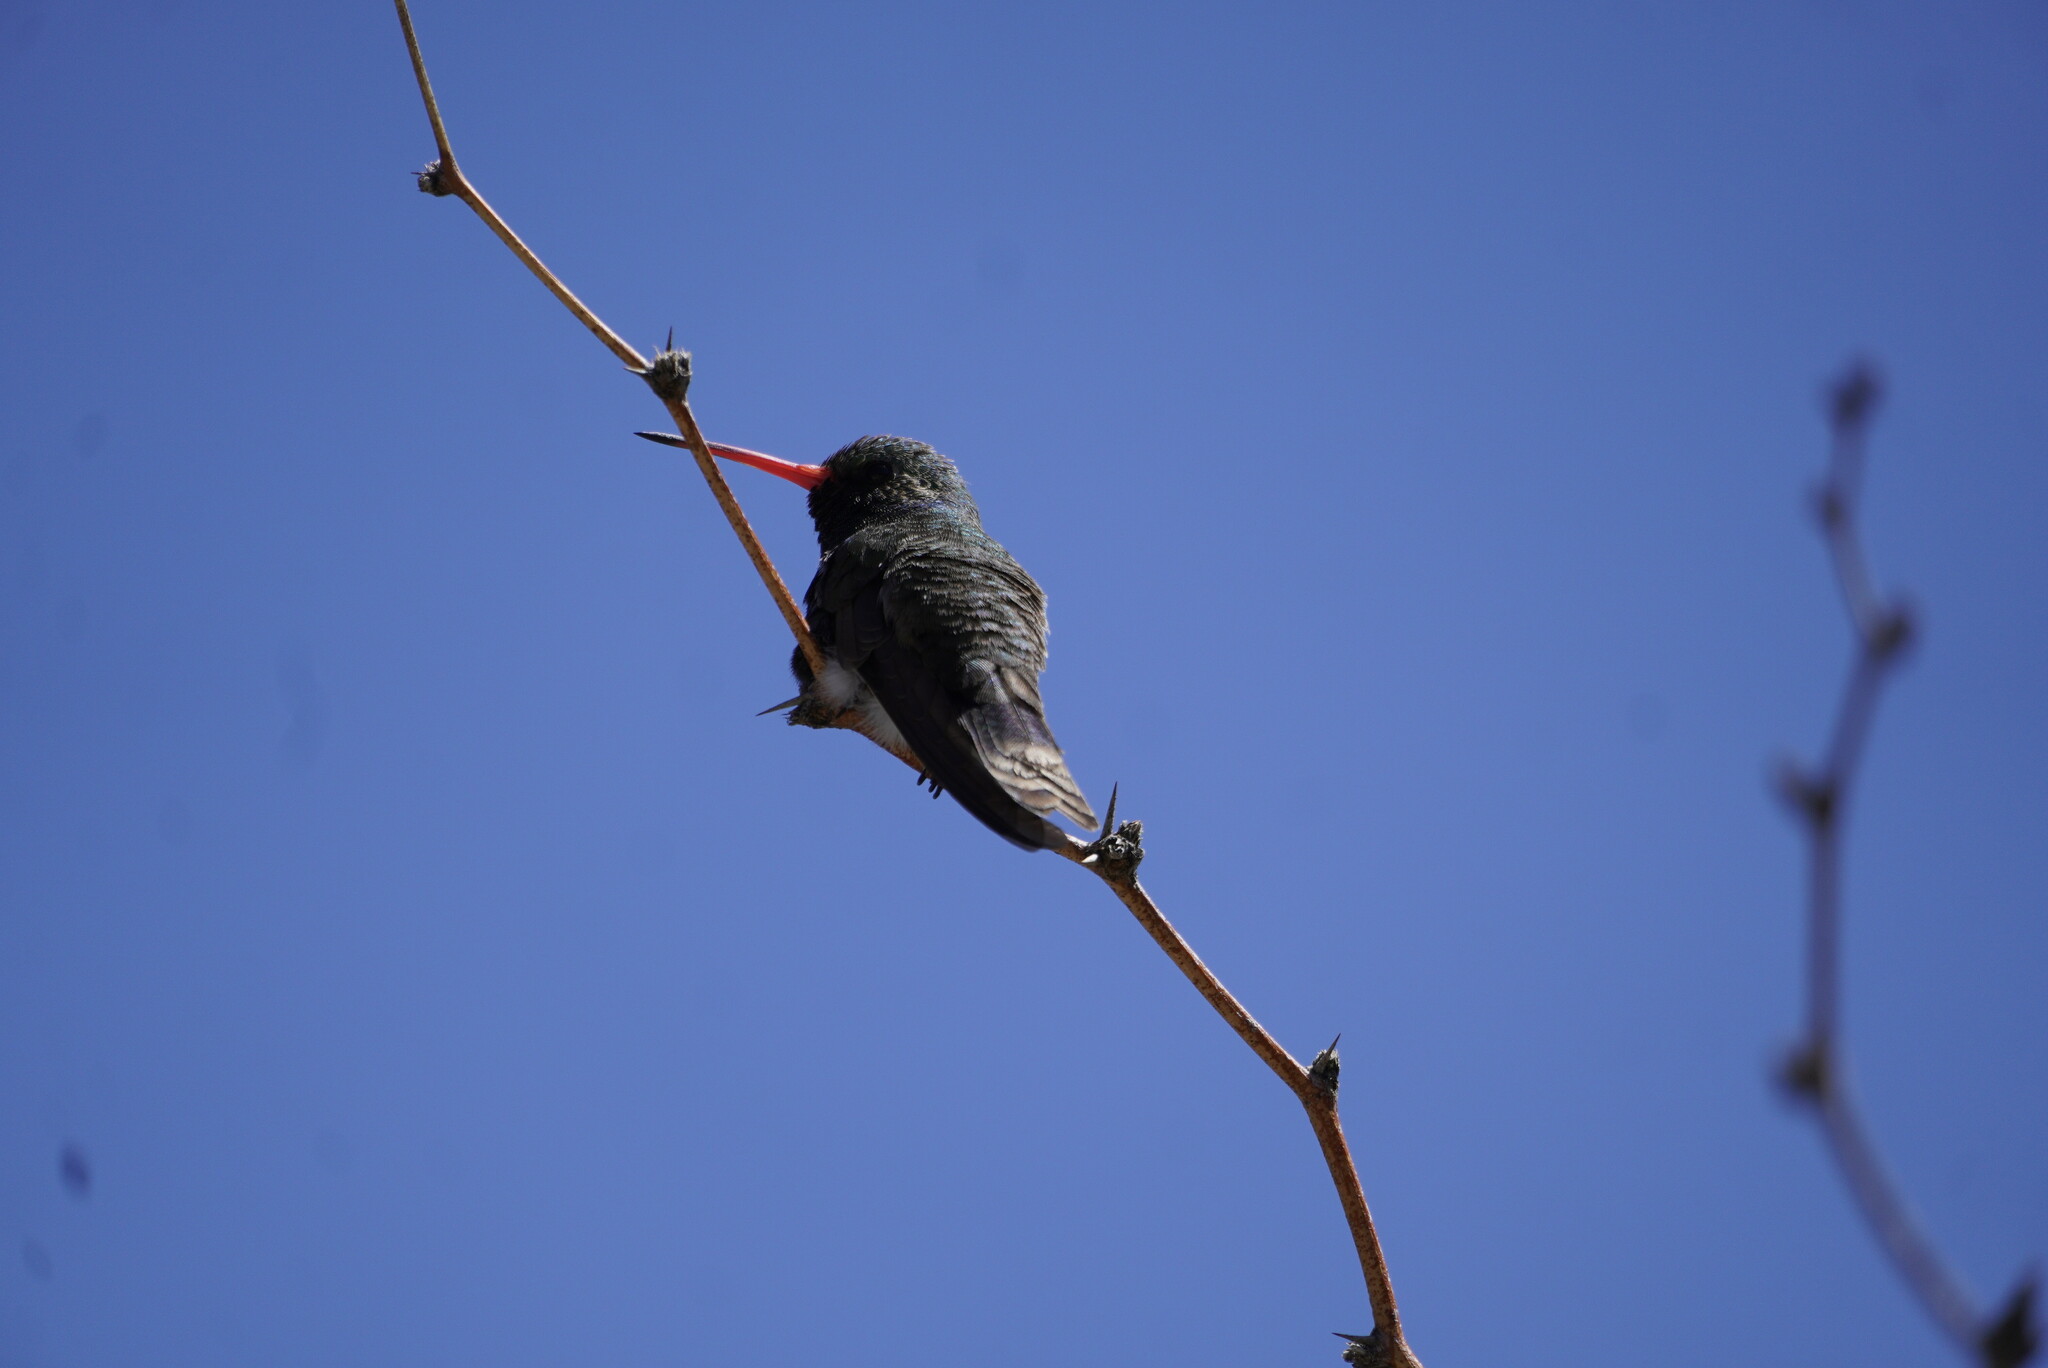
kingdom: Animalia
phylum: Chordata
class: Aves
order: Apodiformes
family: Trochilidae
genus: Cynanthus
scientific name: Cynanthus latirostris
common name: Broad-billed hummingbird
